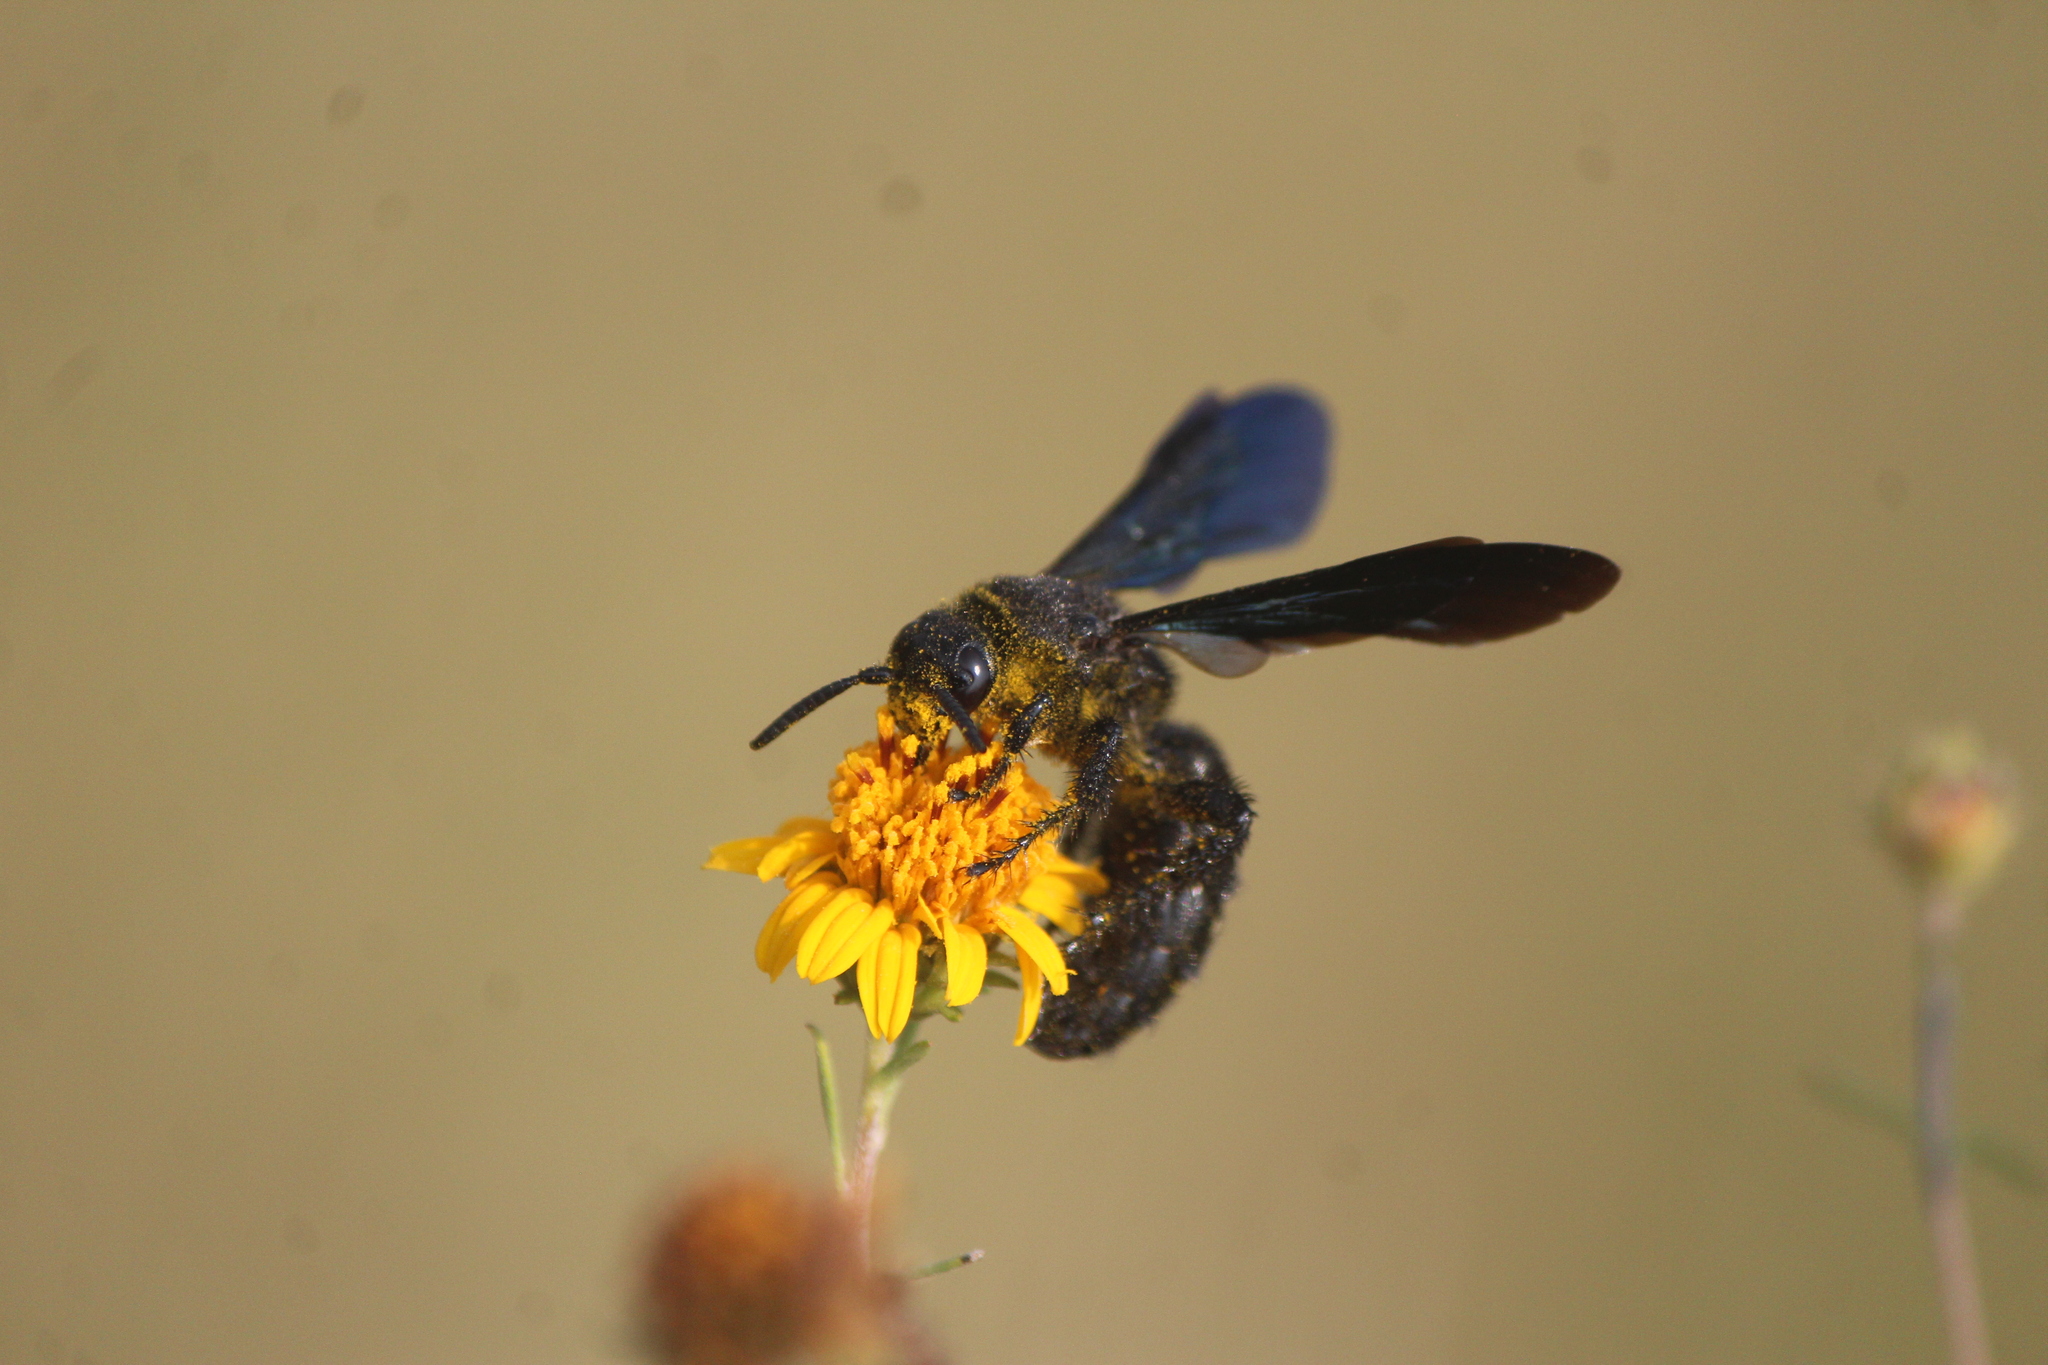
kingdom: Animalia
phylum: Arthropoda
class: Insecta
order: Hymenoptera
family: Scoliidae
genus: Scolia
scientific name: Scolia mexicana
